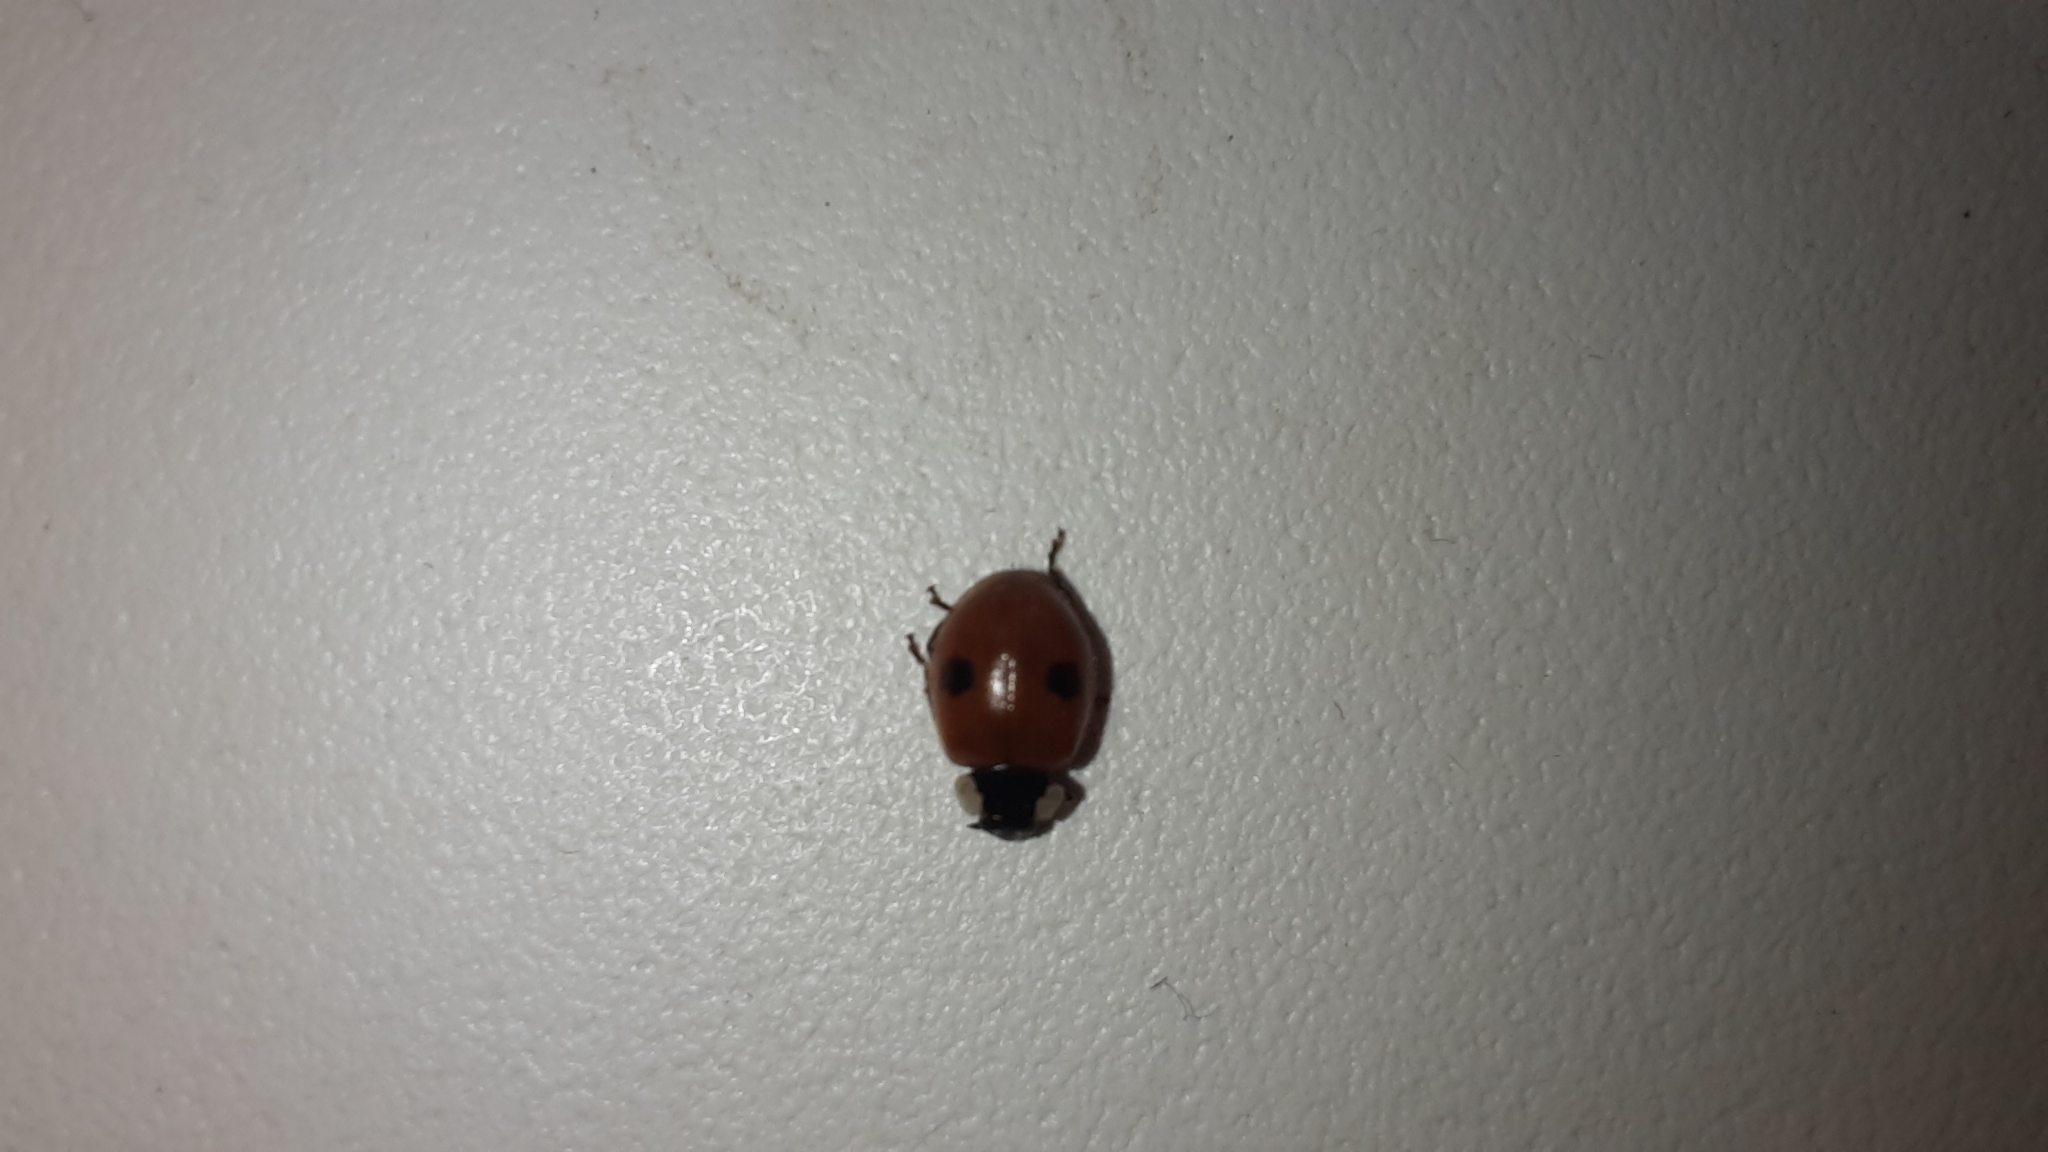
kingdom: Animalia
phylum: Arthropoda
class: Insecta
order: Coleoptera
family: Coccinellidae
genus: Adalia
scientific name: Adalia bipunctata
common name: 2-spot ladybird
